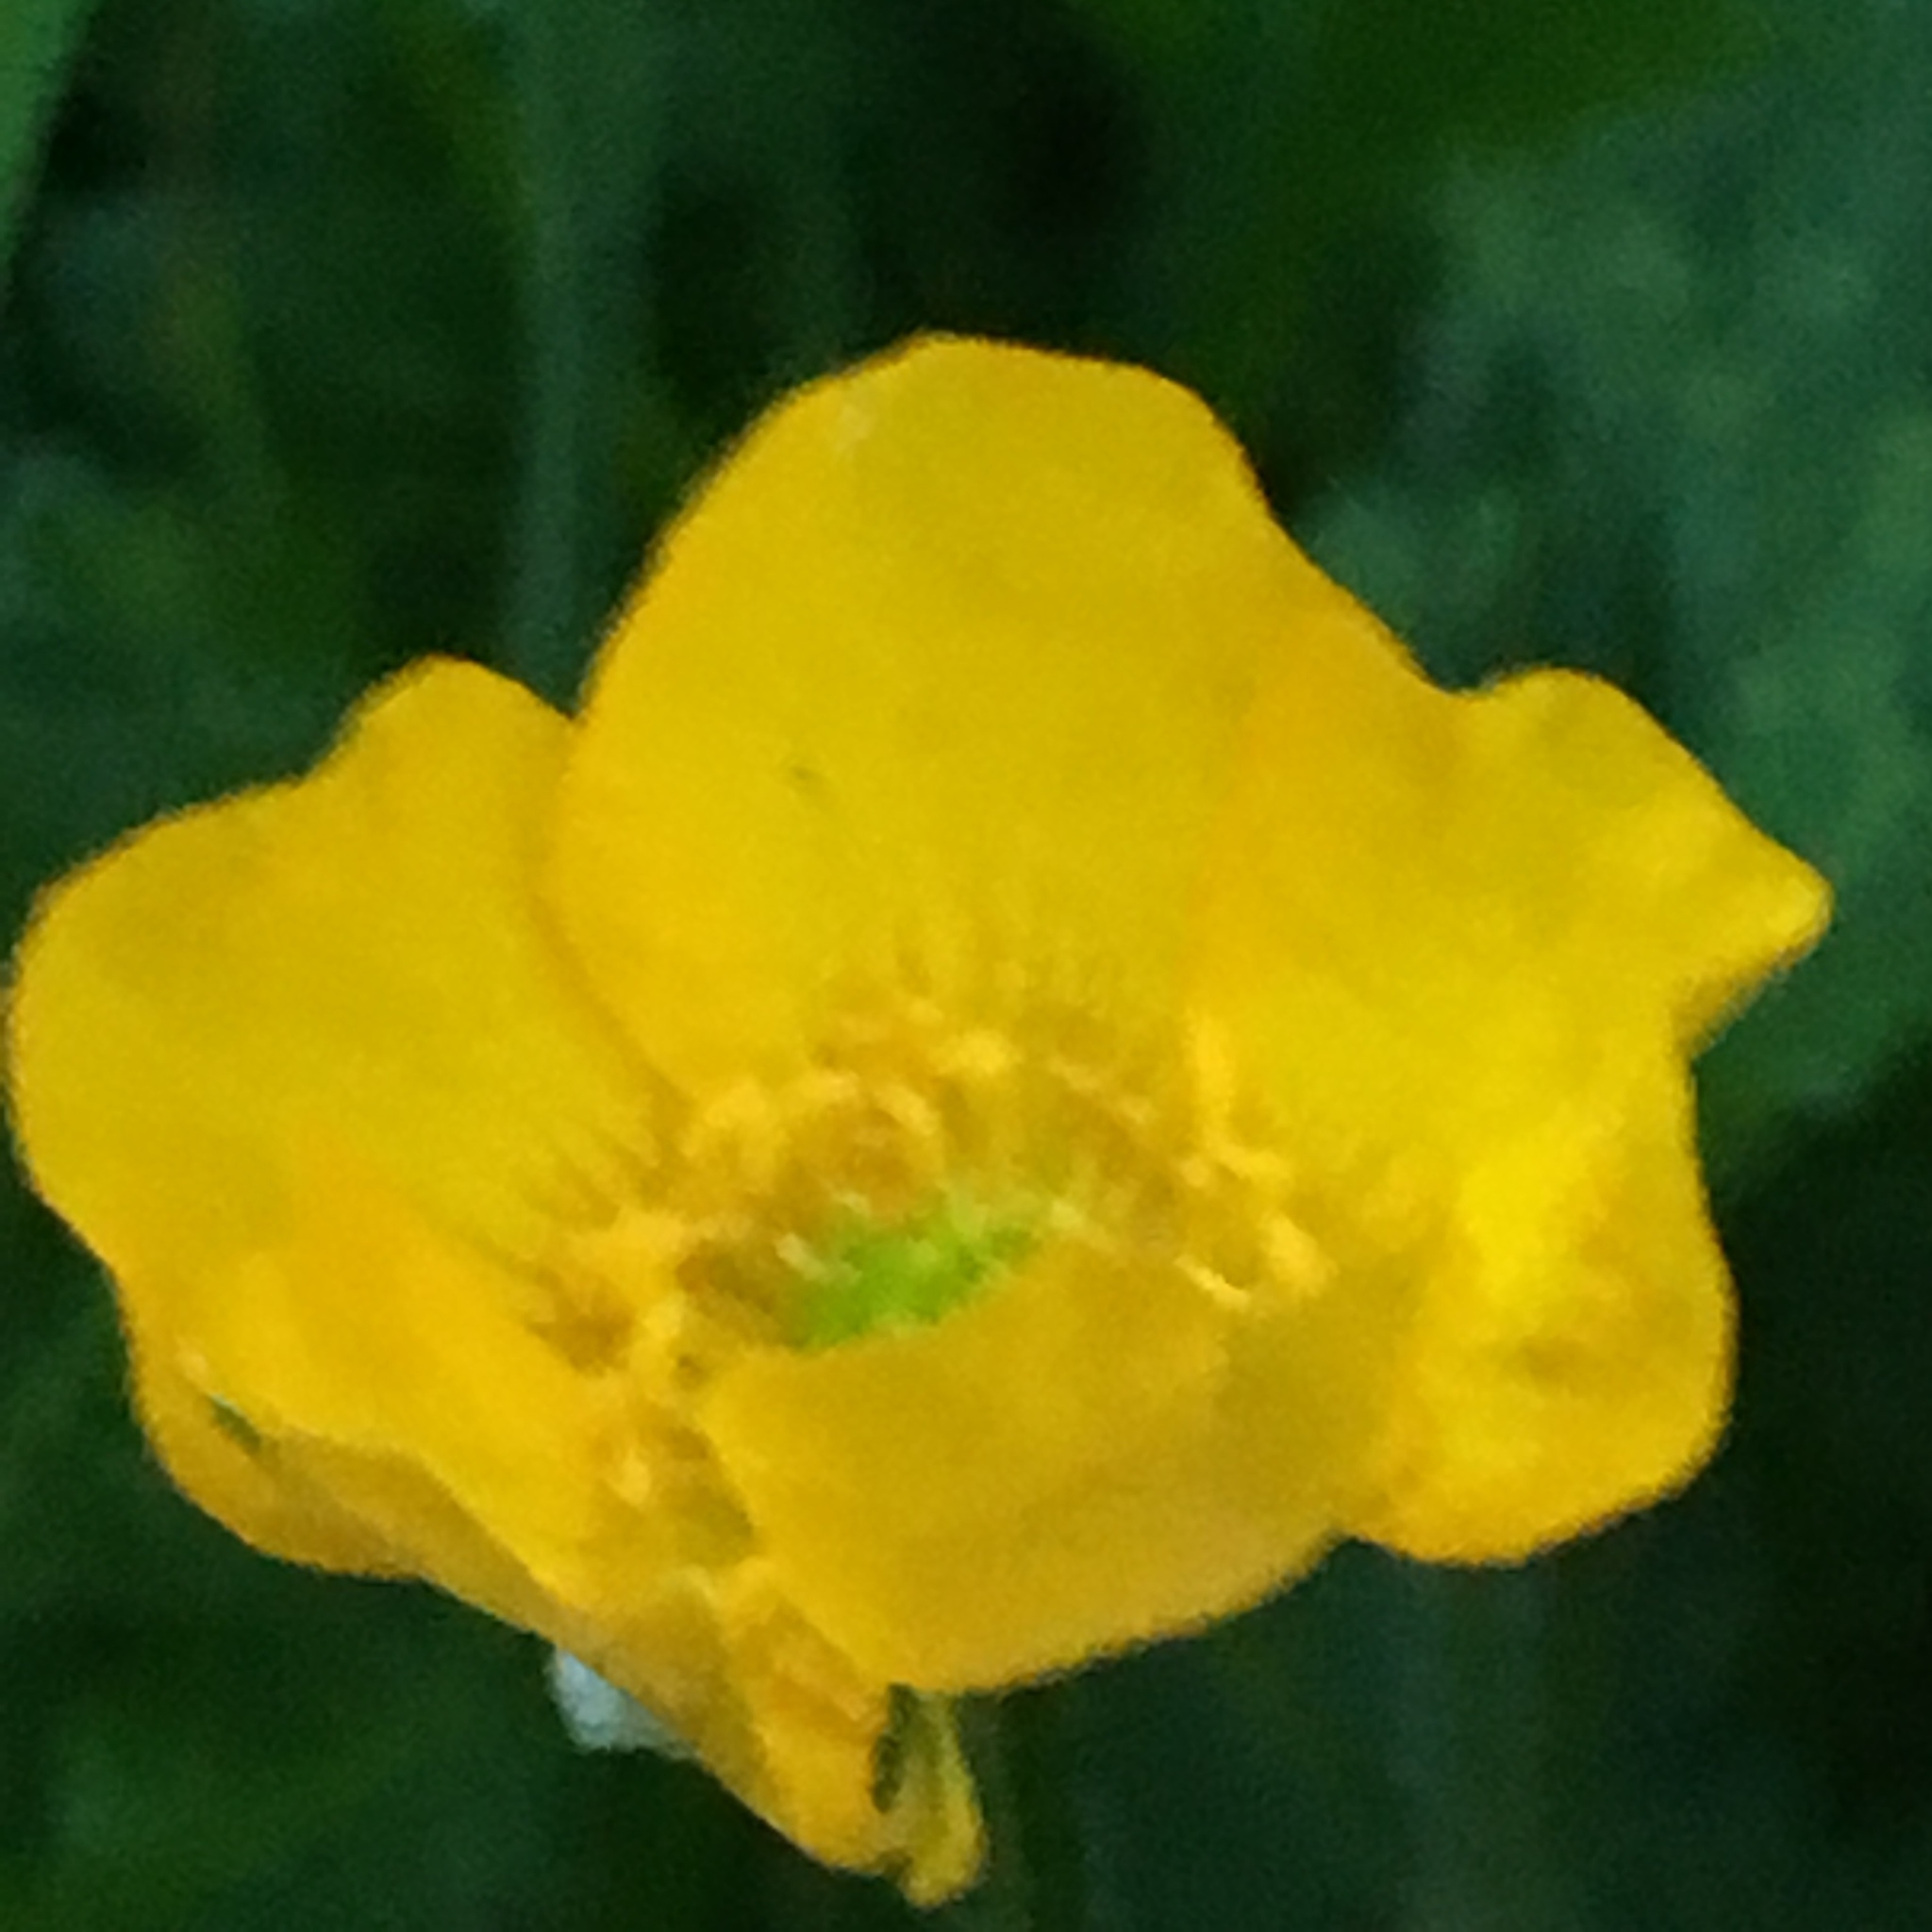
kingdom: Plantae
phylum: Tracheophyta
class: Magnoliopsida
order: Ranunculales
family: Ranunculaceae
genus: Ranunculus
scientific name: Ranunculus repens
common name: Creeping buttercup
